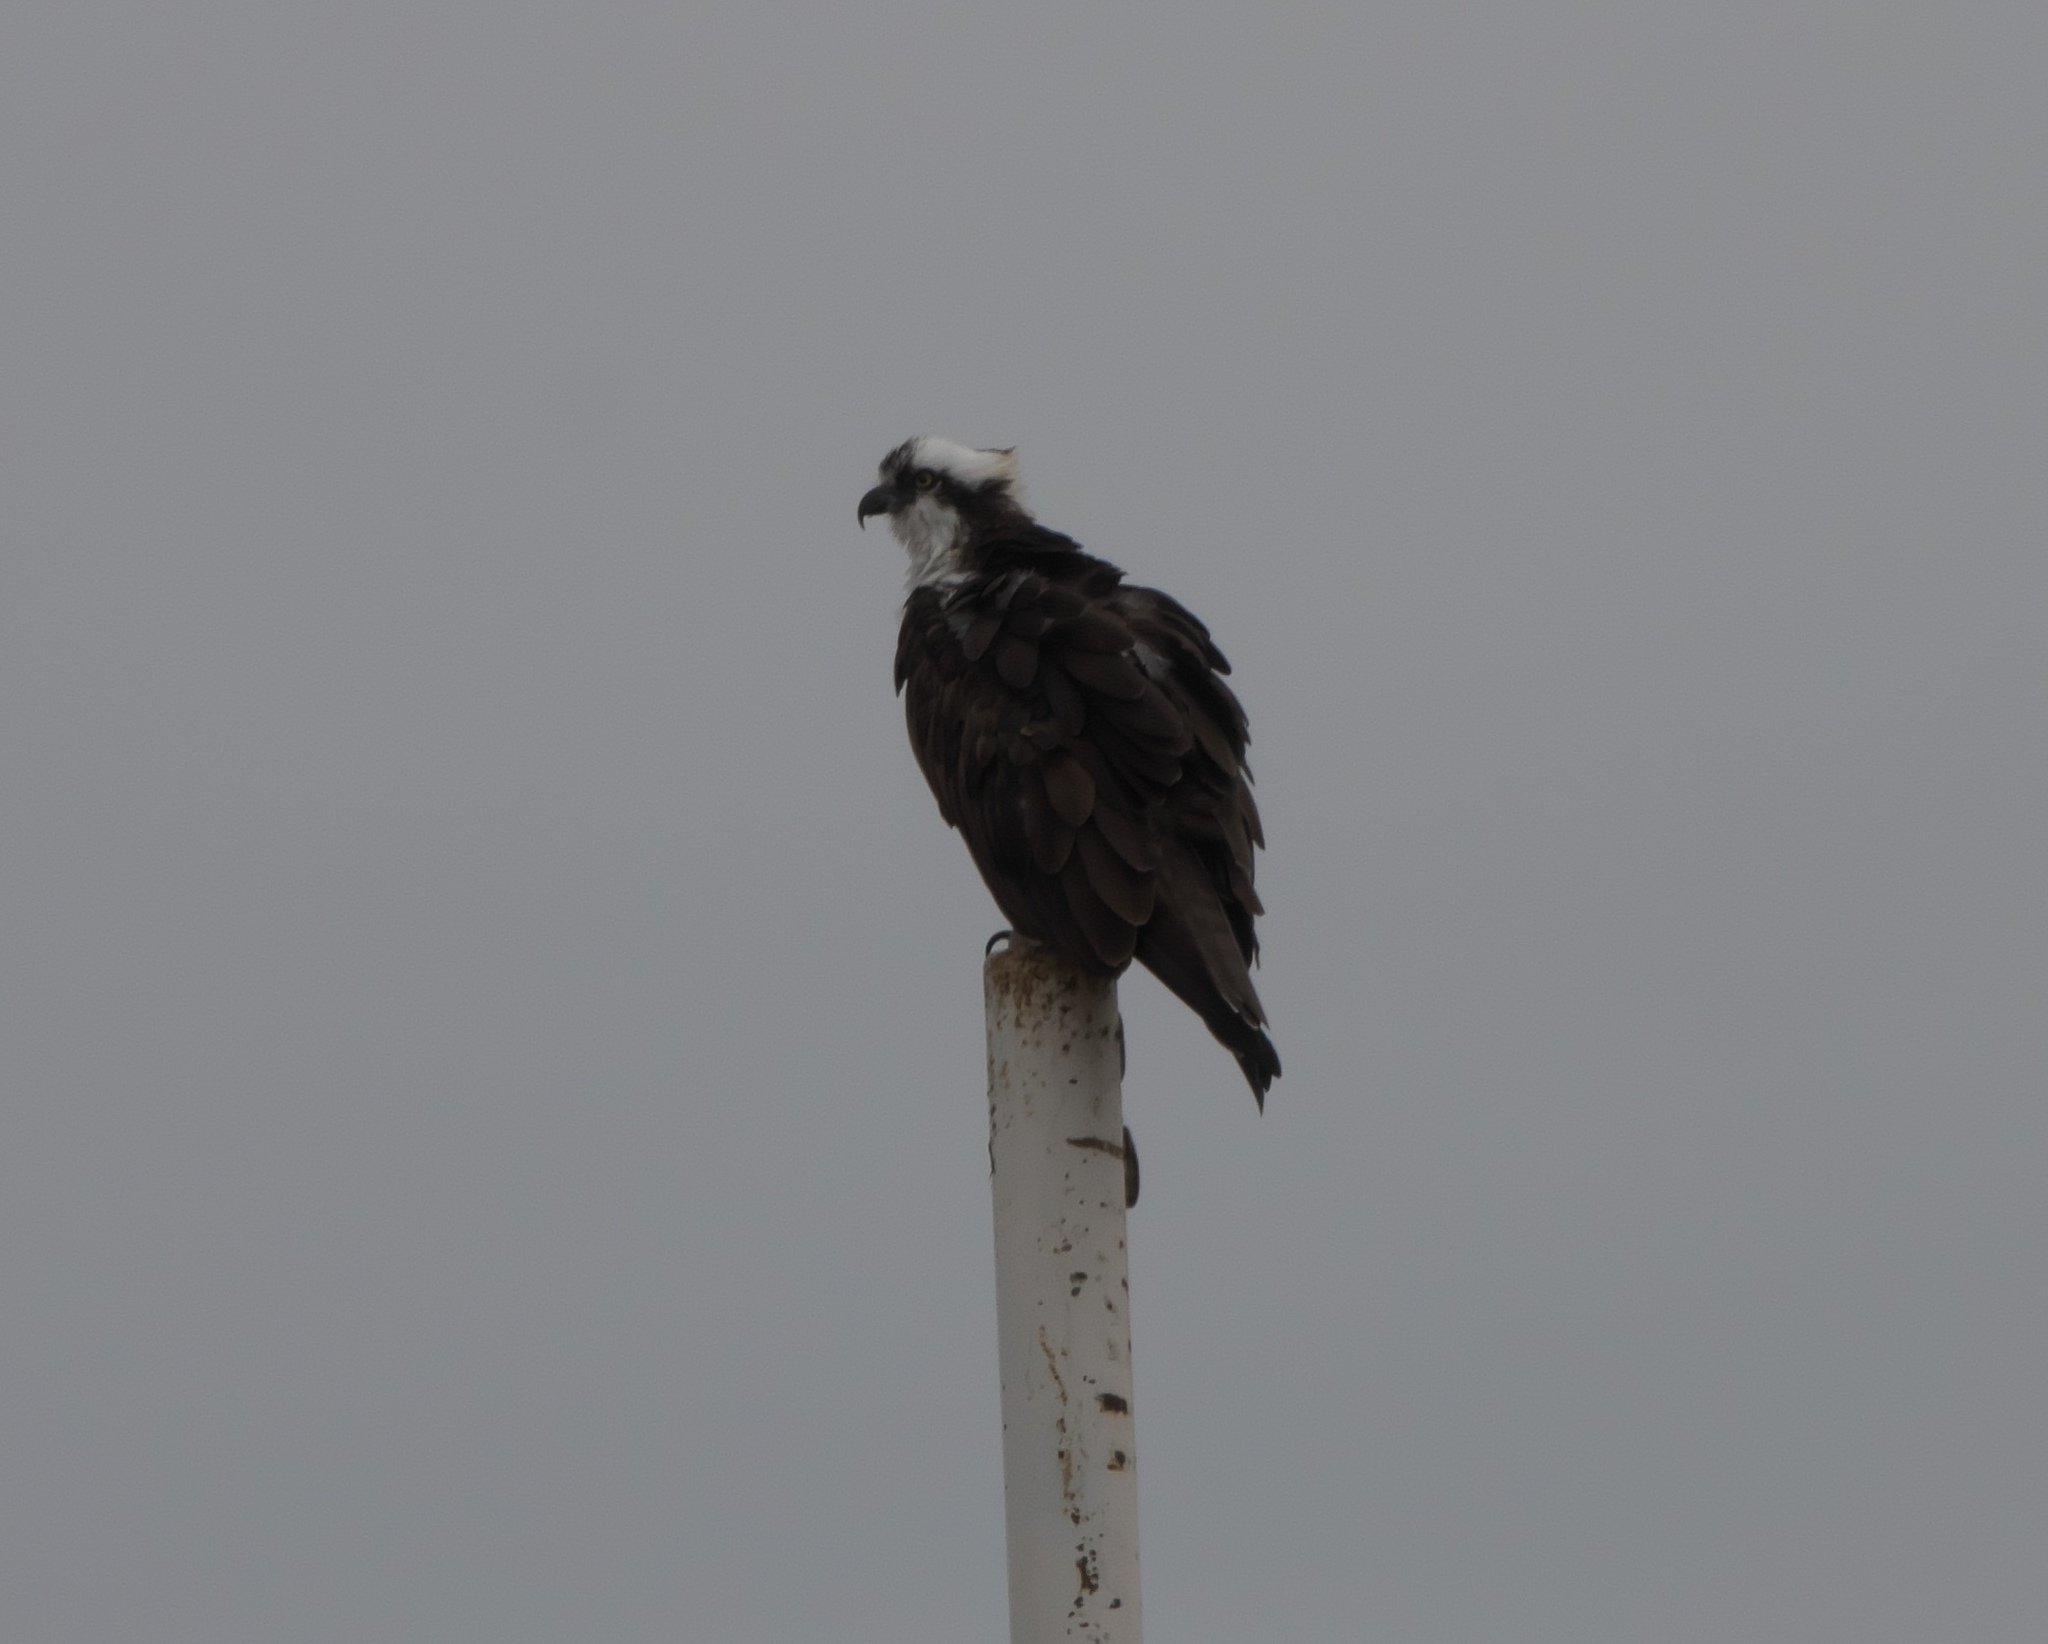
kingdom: Animalia
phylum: Chordata
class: Aves
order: Accipitriformes
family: Pandionidae
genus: Pandion
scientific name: Pandion haliaetus
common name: Osprey
